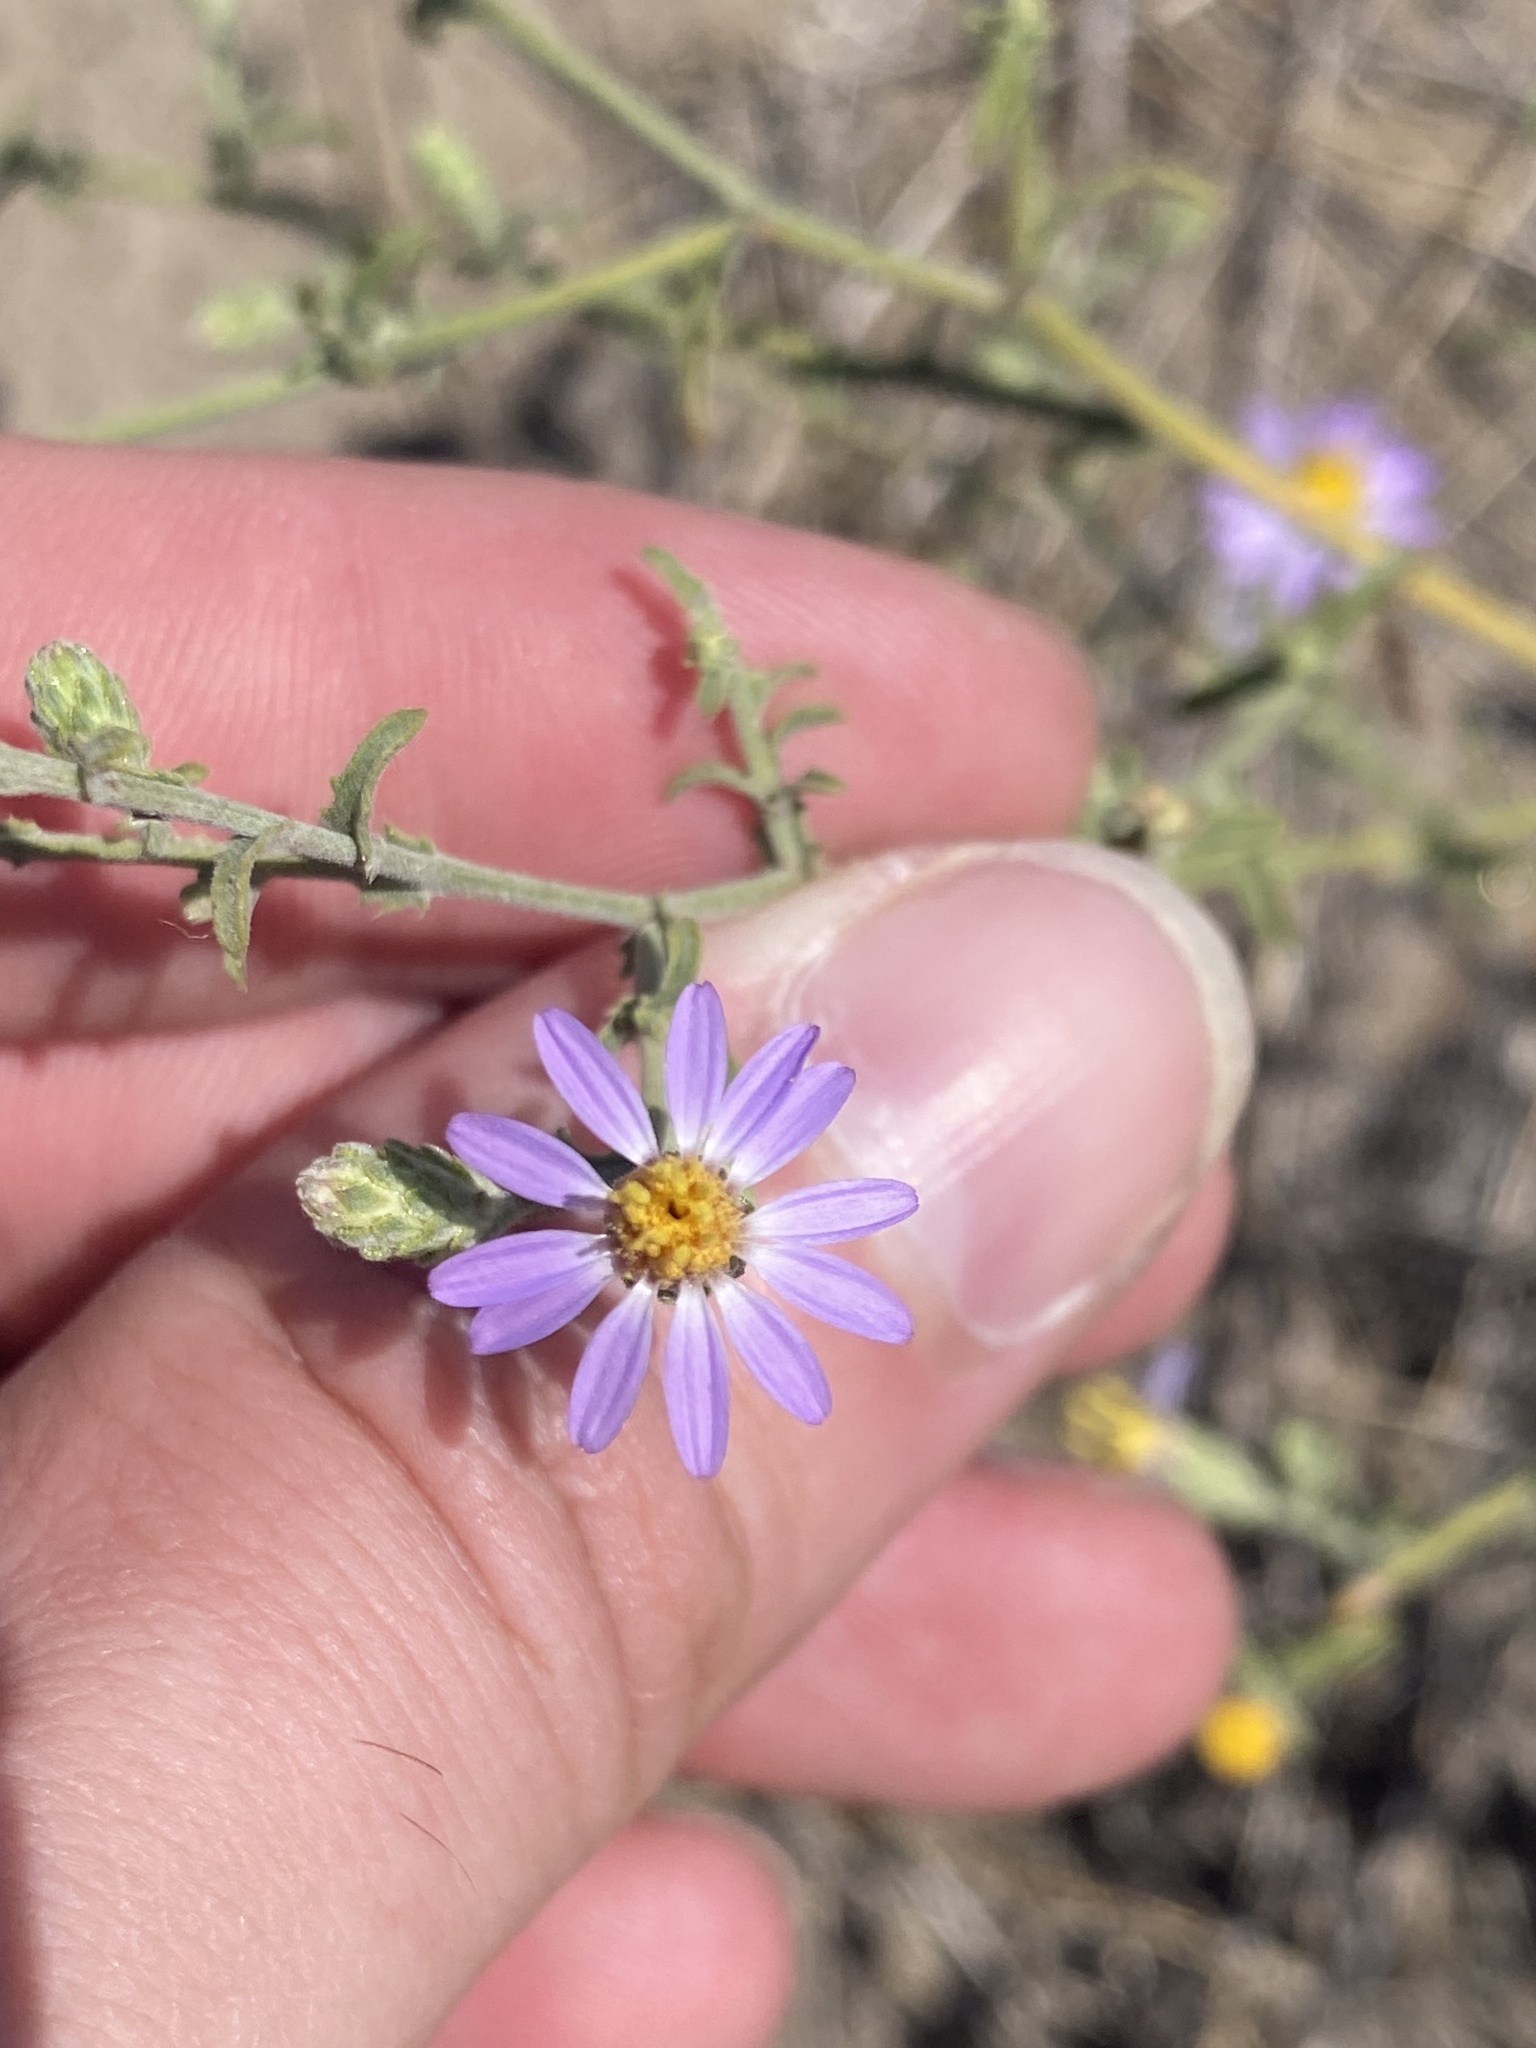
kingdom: Plantae
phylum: Tracheophyta
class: Magnoliopsida
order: Asterales
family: Asteraceae
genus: Dieteria
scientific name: Dieteria canescens
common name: Hoary-aster
